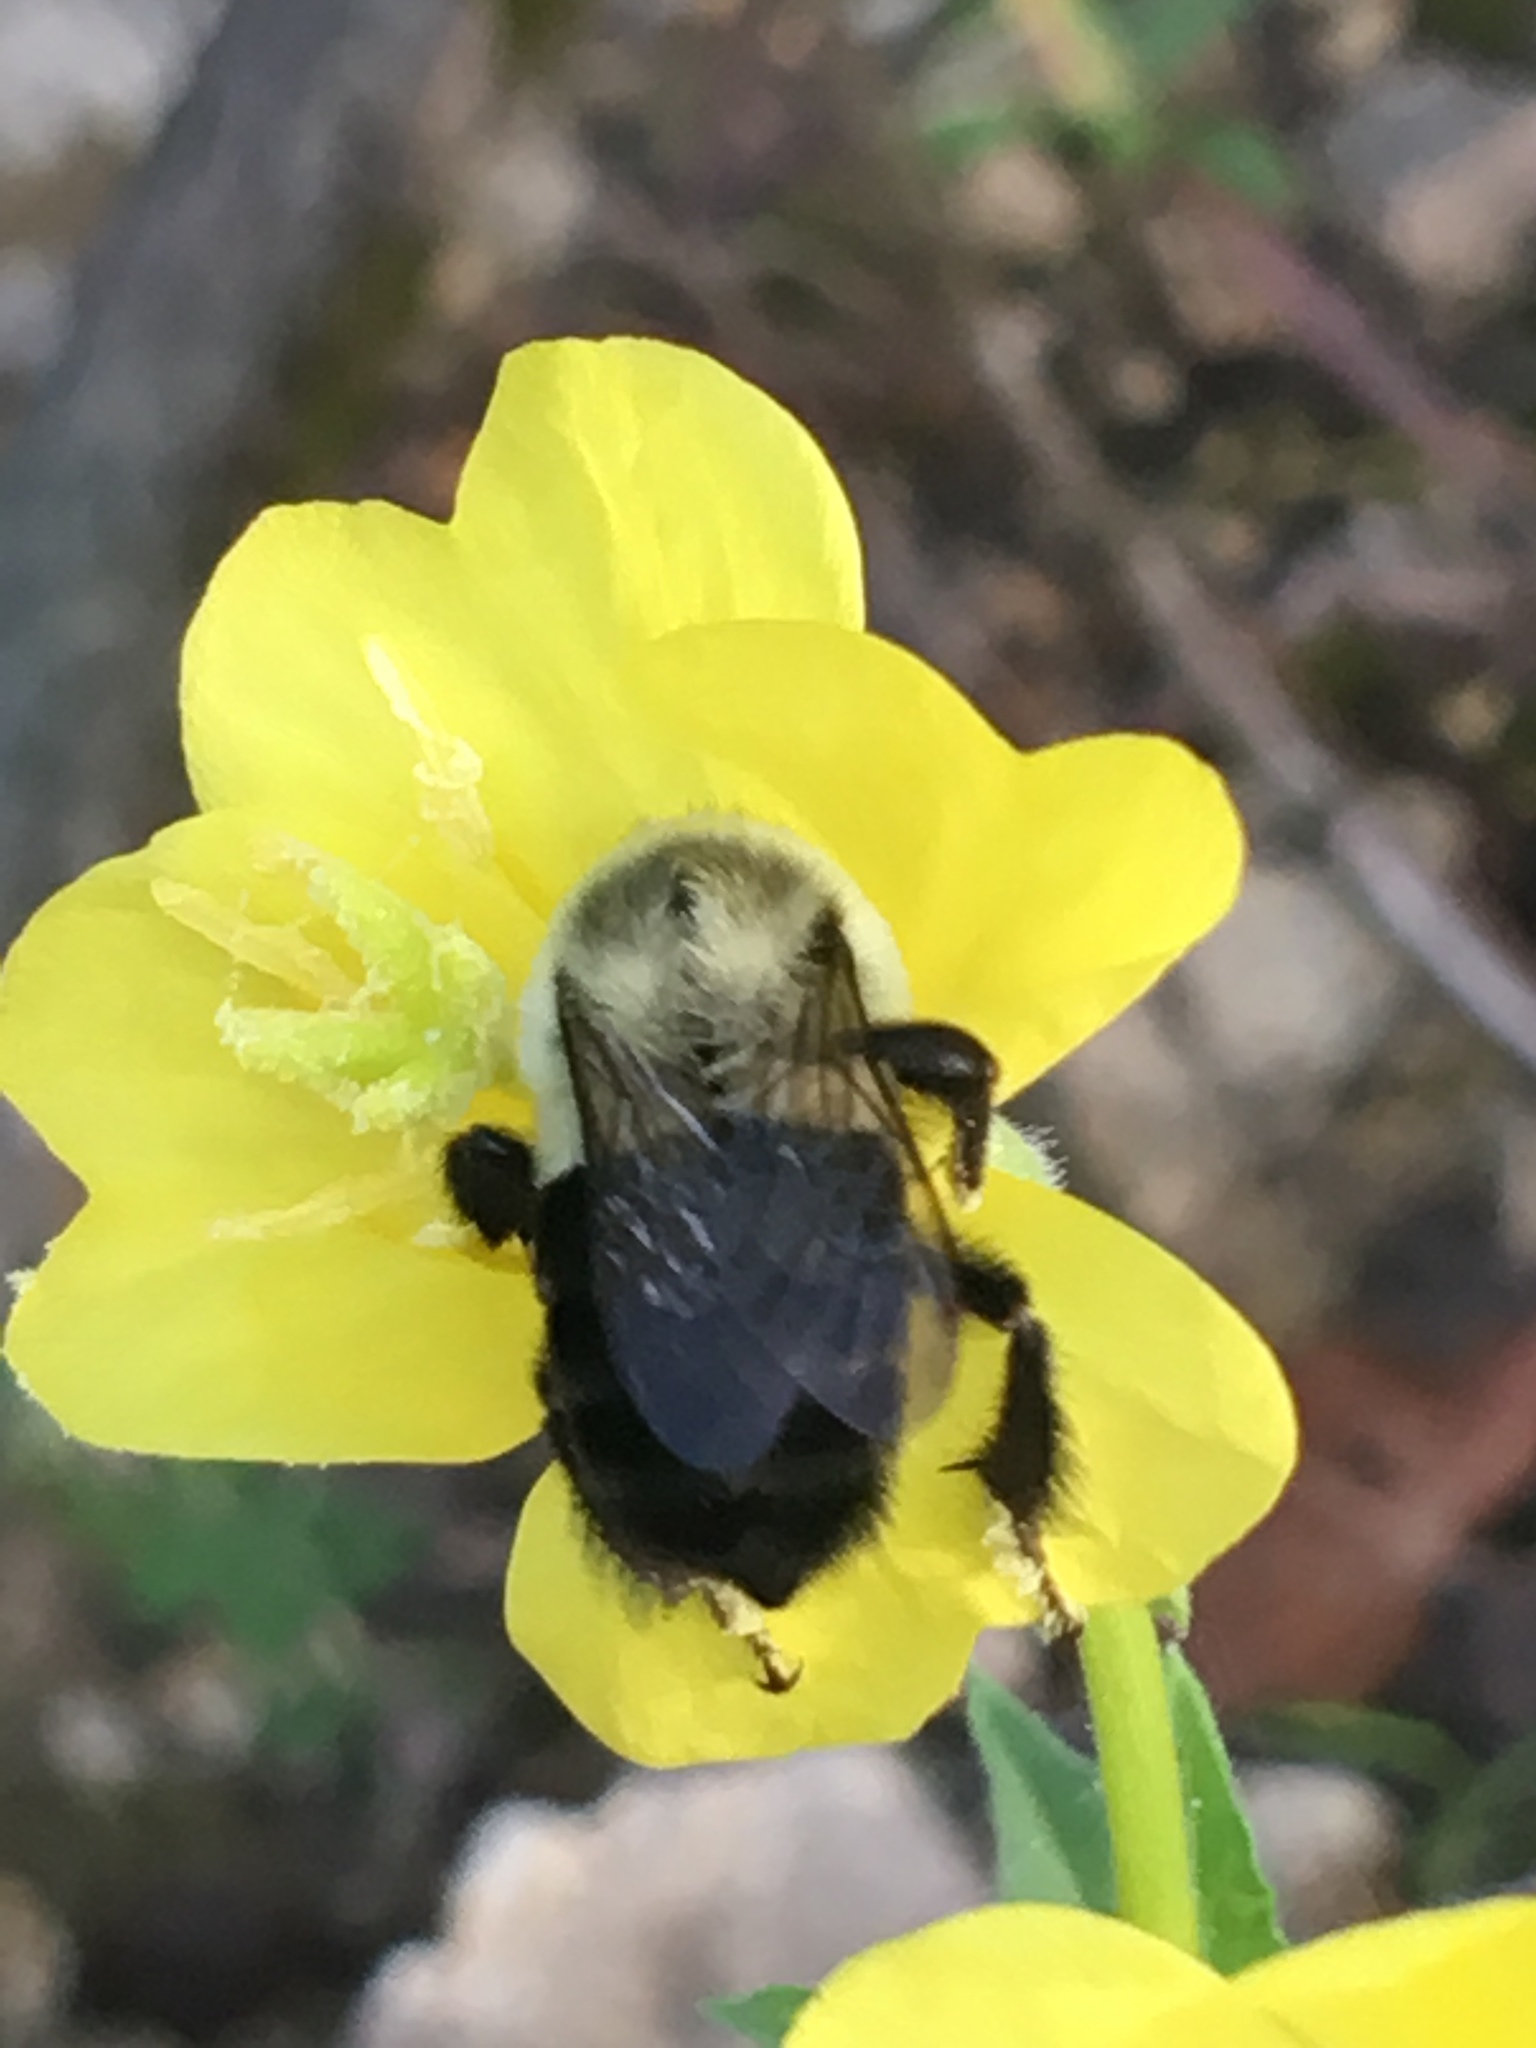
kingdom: Animalia
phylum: Arthropoda
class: Insecta
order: Hymenoptera
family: Apidae
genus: Bombus
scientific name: Bombus impatiens
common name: Common eastern bumble bee
